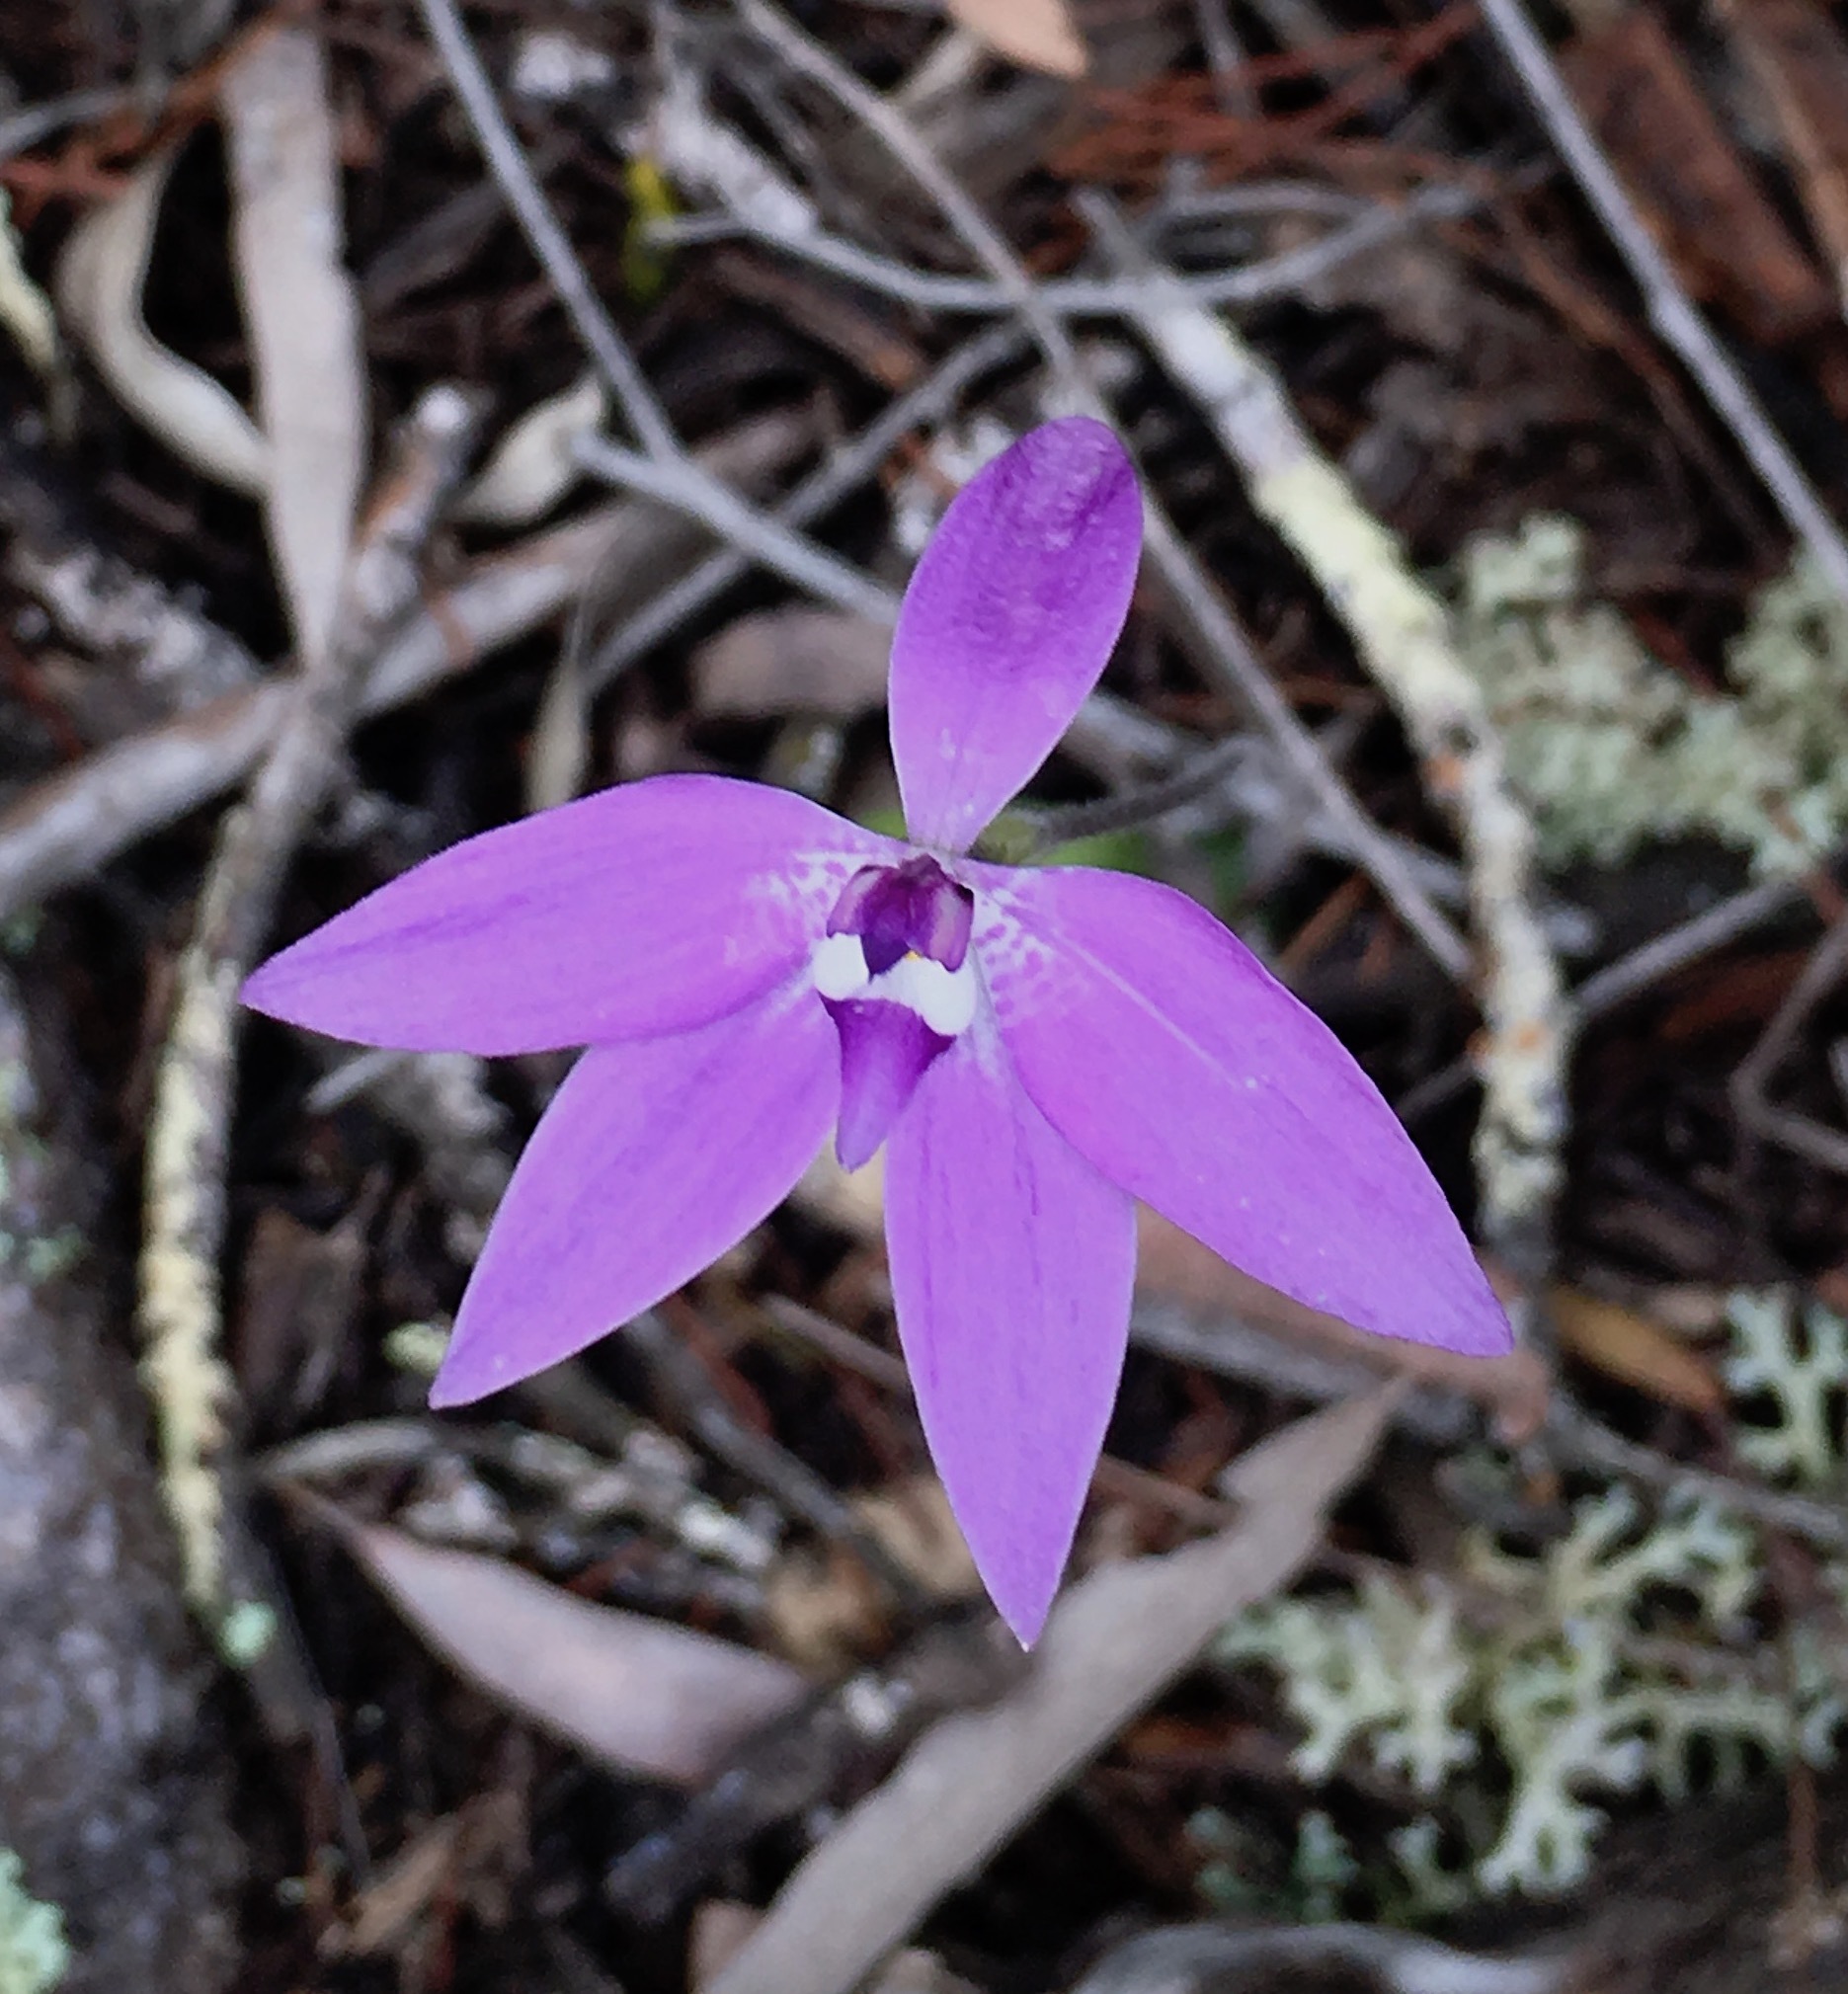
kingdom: Plantae
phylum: Tracheophyta
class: Liliopsida
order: Asparagales
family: Orchidaceae
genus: Caladenia
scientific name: Caladenia major
